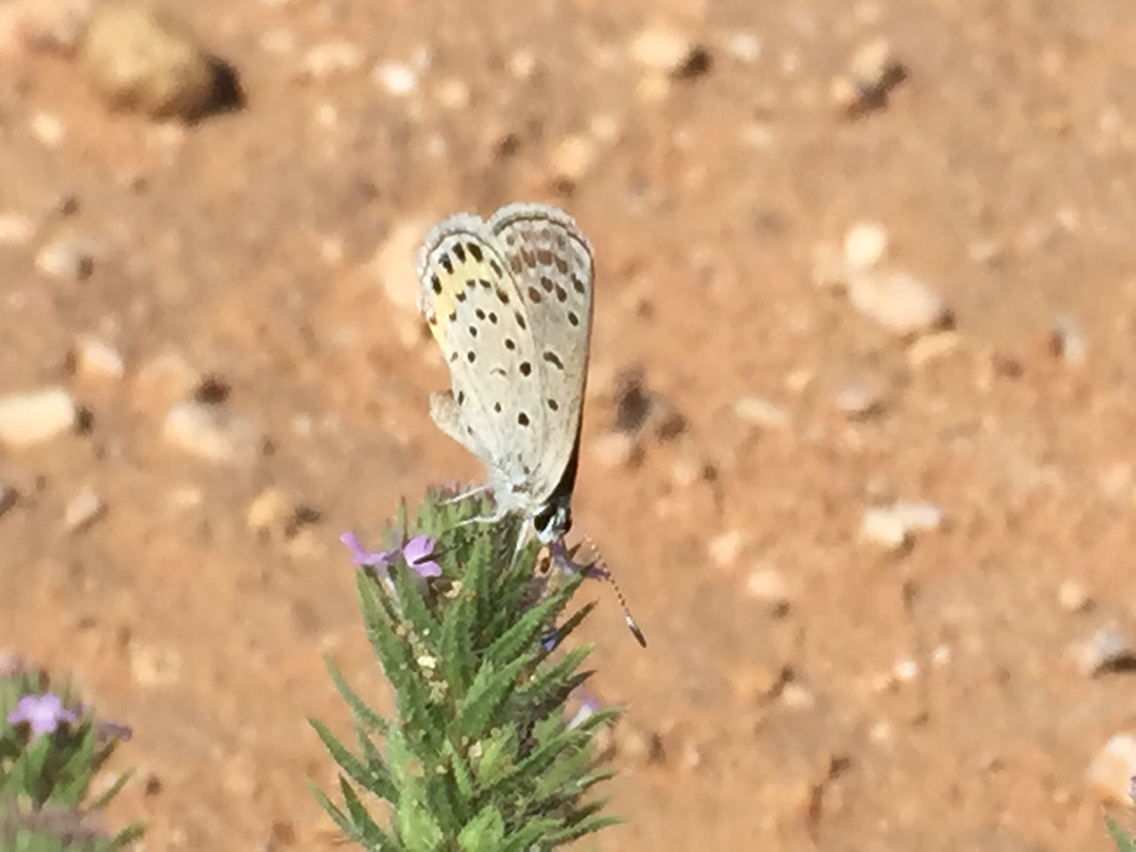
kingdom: Animalia
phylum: Arthropoda
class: Insecta
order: Lepidoptera
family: Lycaenidae
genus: Icaricia
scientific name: Icaricia lupini
